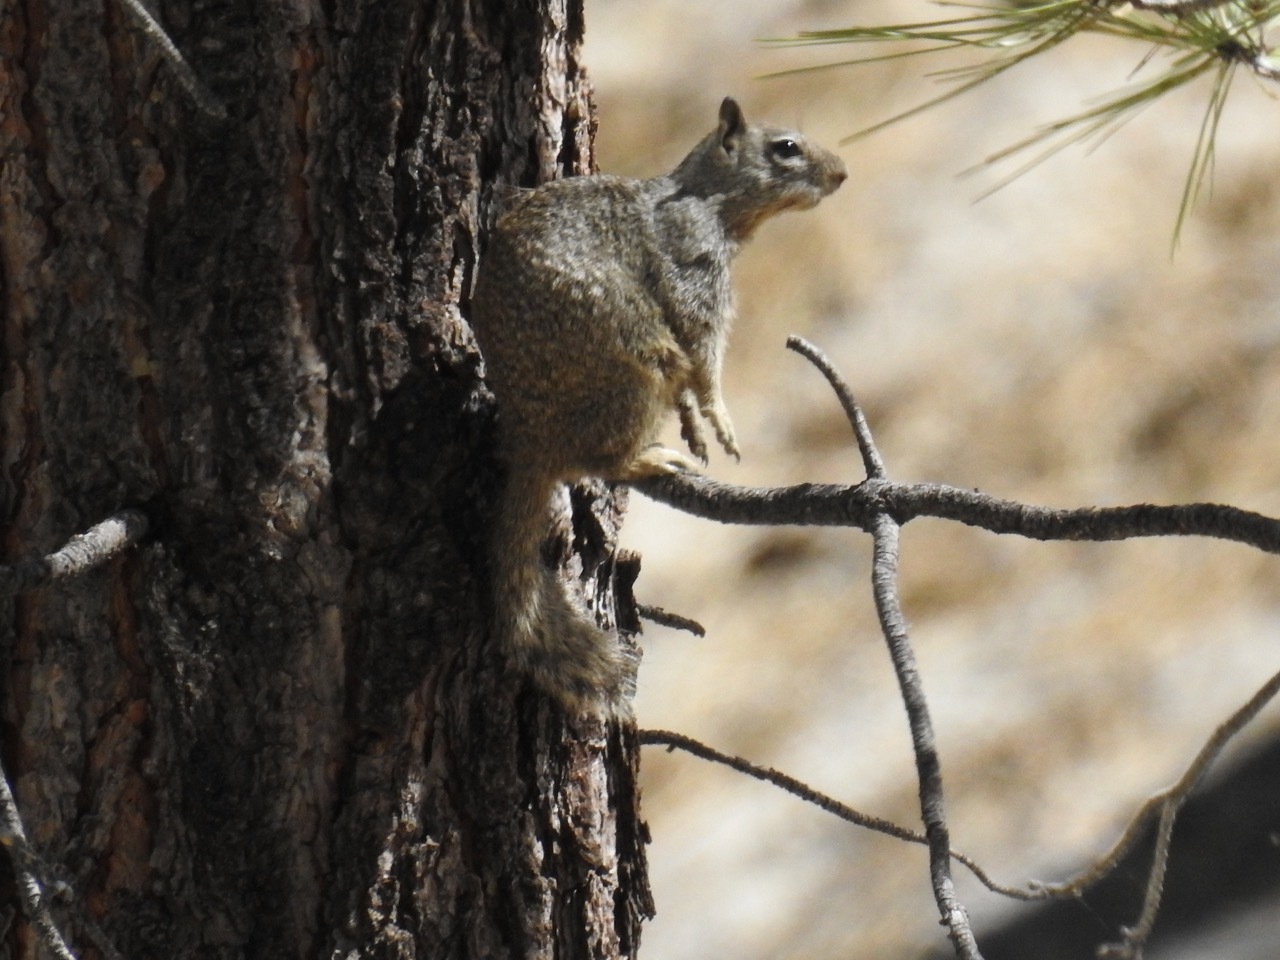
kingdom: Animalia
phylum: Chordata
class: Mammalia
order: Rodentia
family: Sciuridae
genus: Otospermophilus
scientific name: Otospermophilus beecheyi
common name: California ground squirrel
